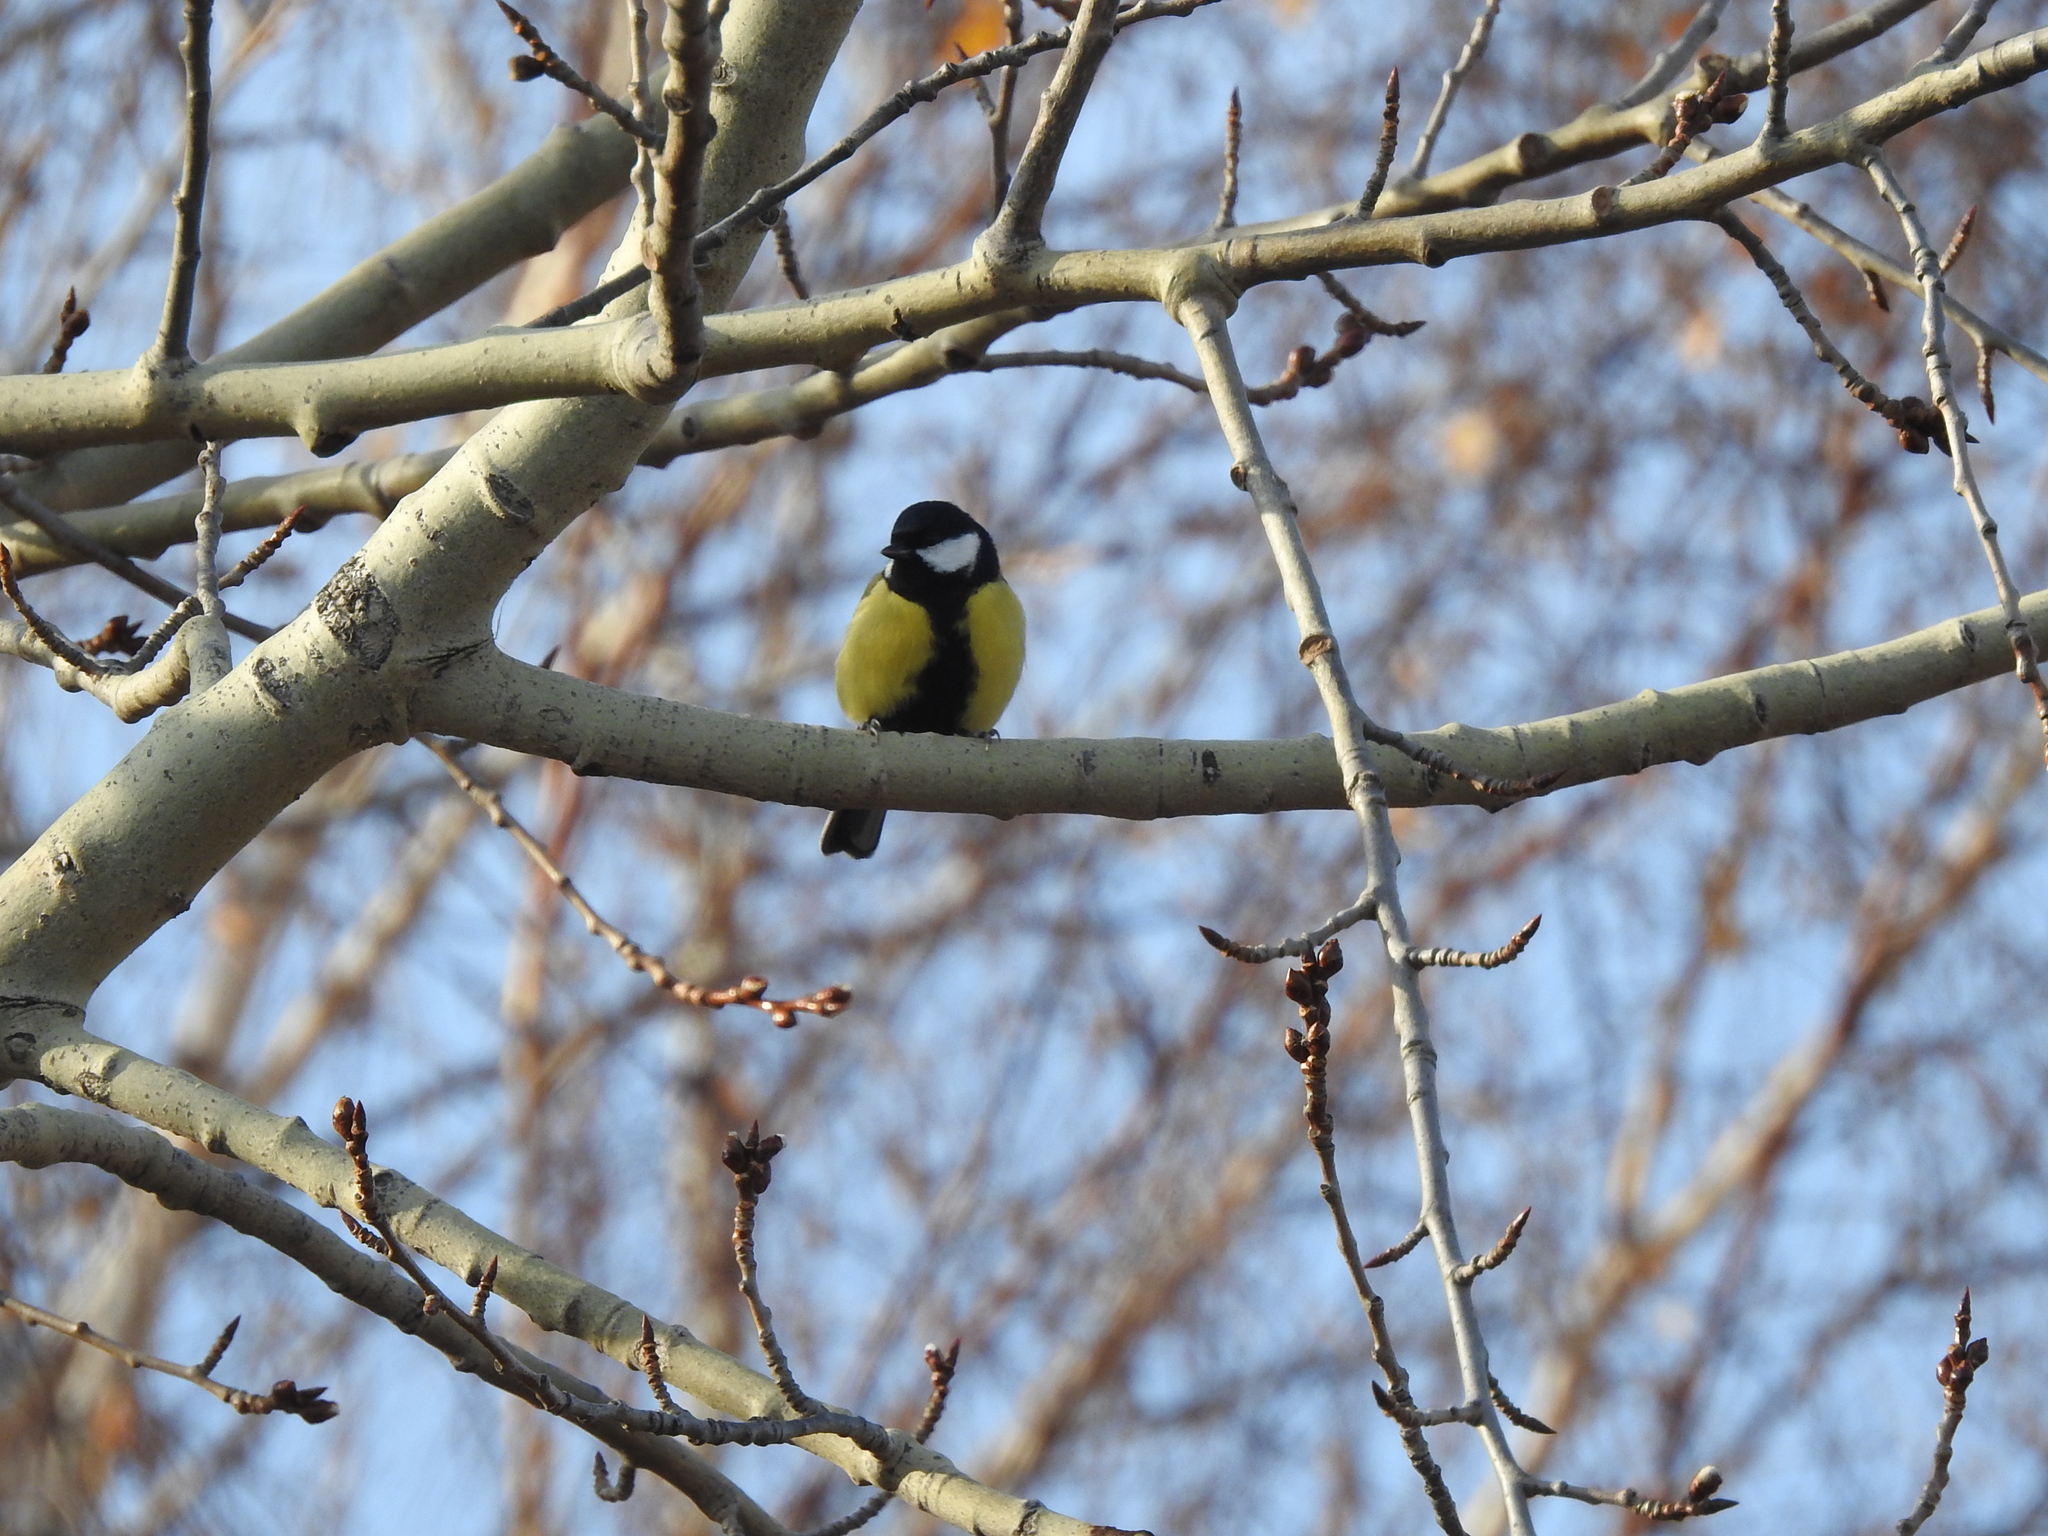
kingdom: Animalia
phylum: Chordata
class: Aves
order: Passeriformes
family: Paridae
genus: Parus
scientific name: Parus major
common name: Great tit
